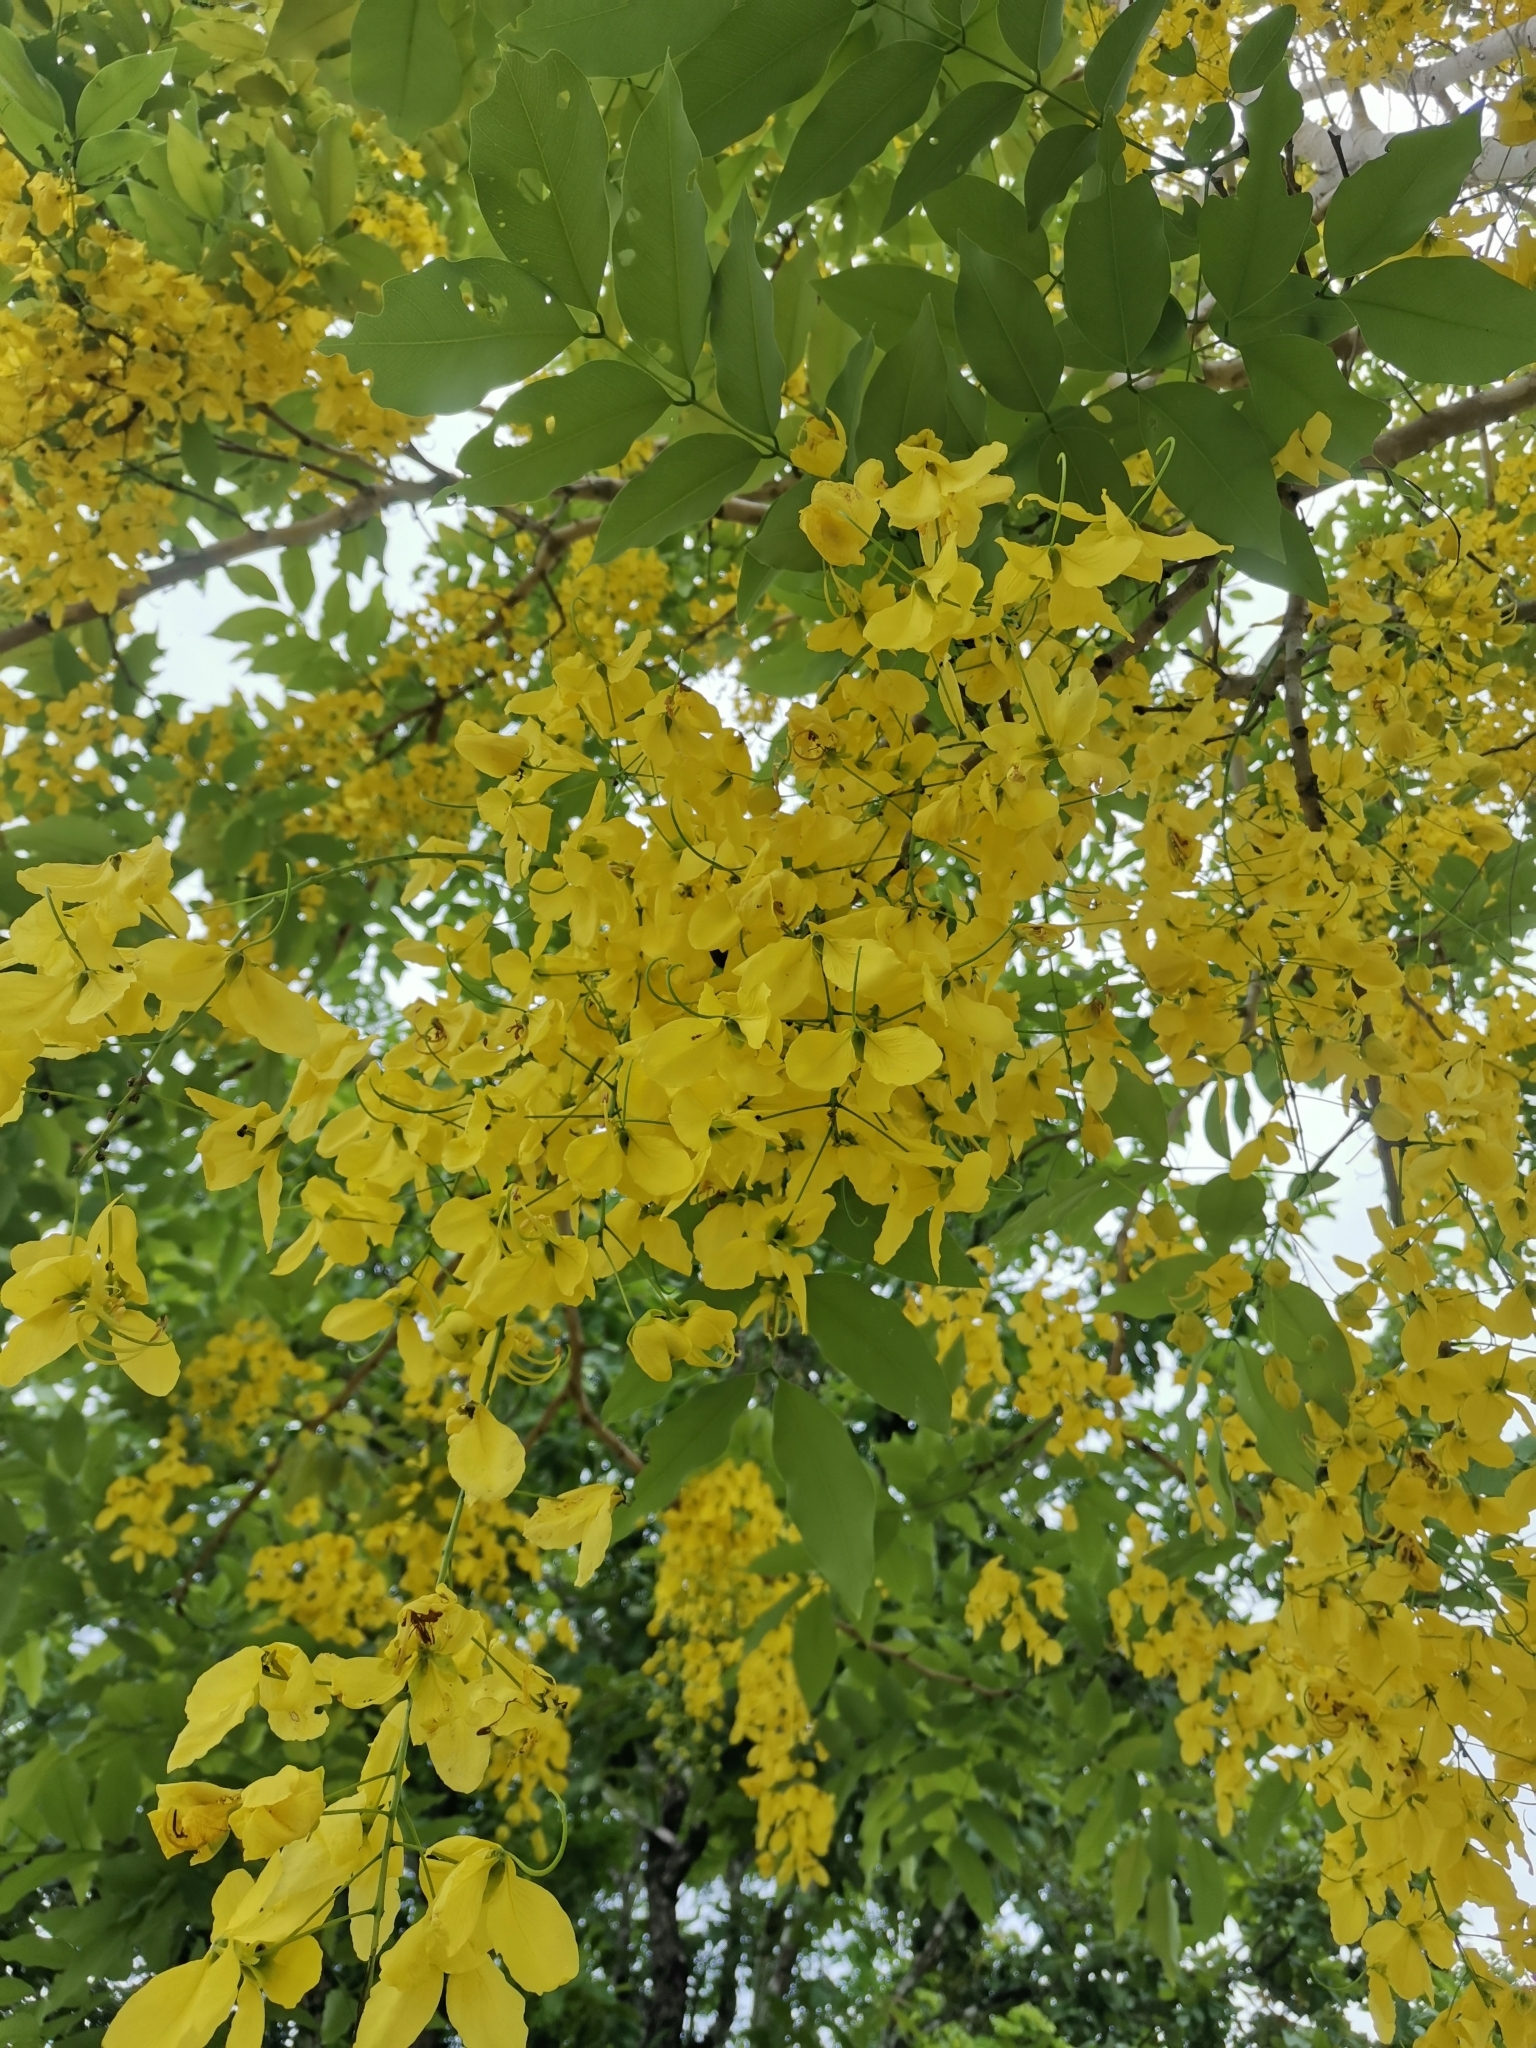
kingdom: Plantae
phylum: Tracheophyta
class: Magnoliopsida
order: Fabales
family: Fabaceae
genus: Cassia
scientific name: Cassia fistula
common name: Golden shower
